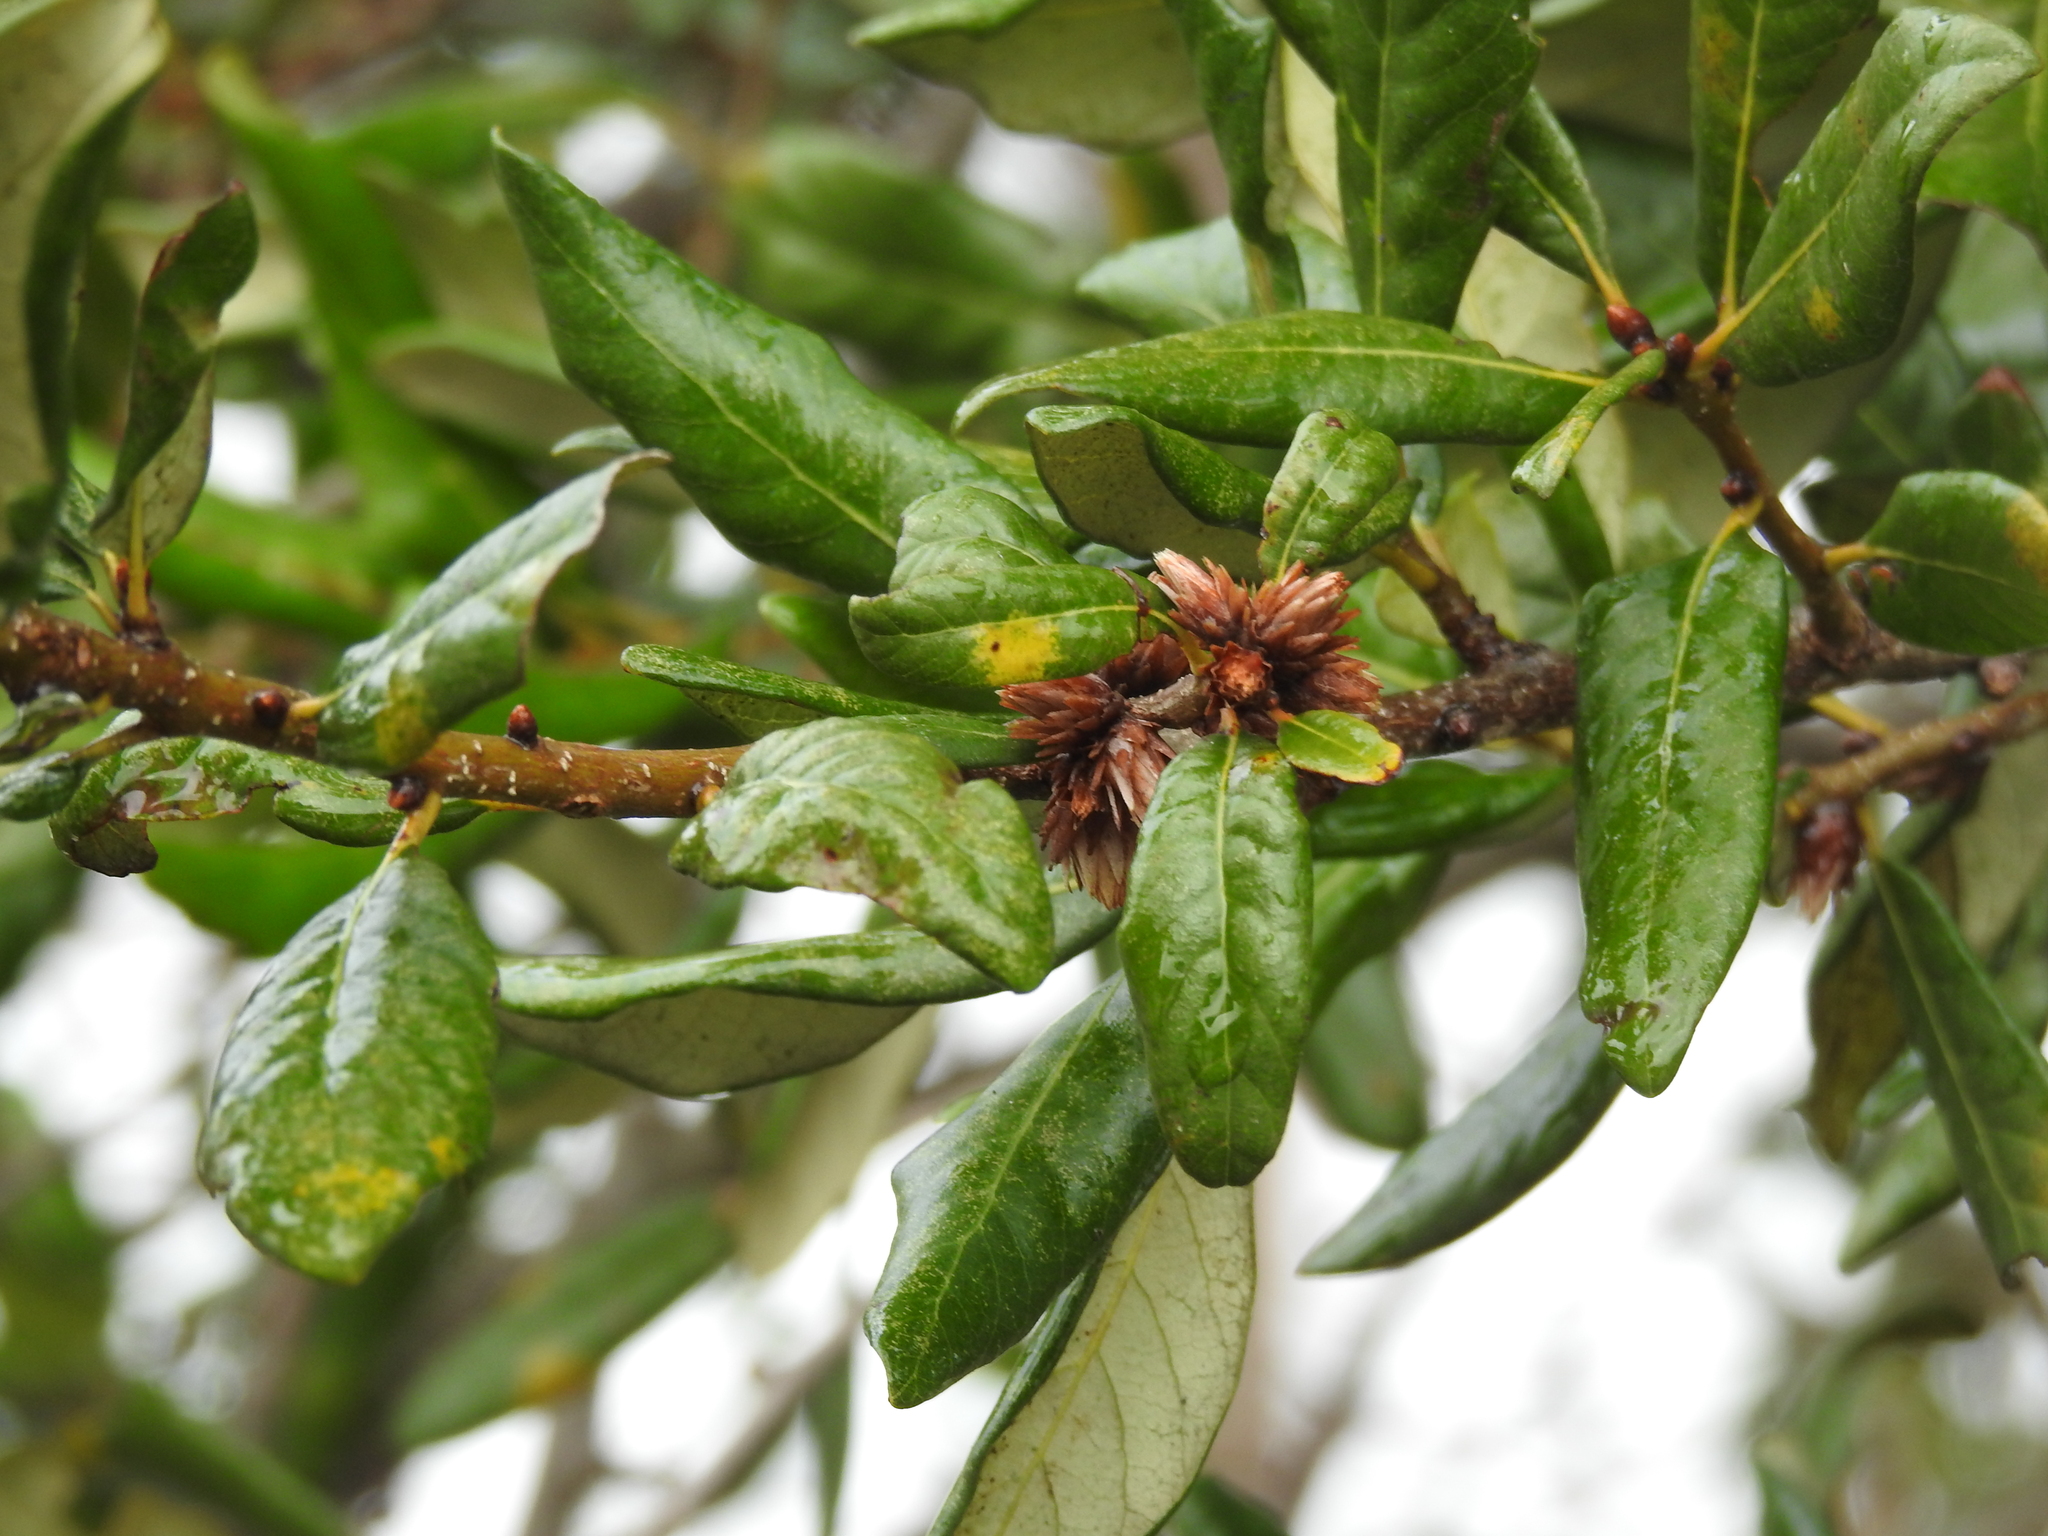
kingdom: Animalia
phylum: Arthropoda
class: Insecta
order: Diptera
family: Cecidomyiidae
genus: Arnoldiola
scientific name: Arnoldiola atra
